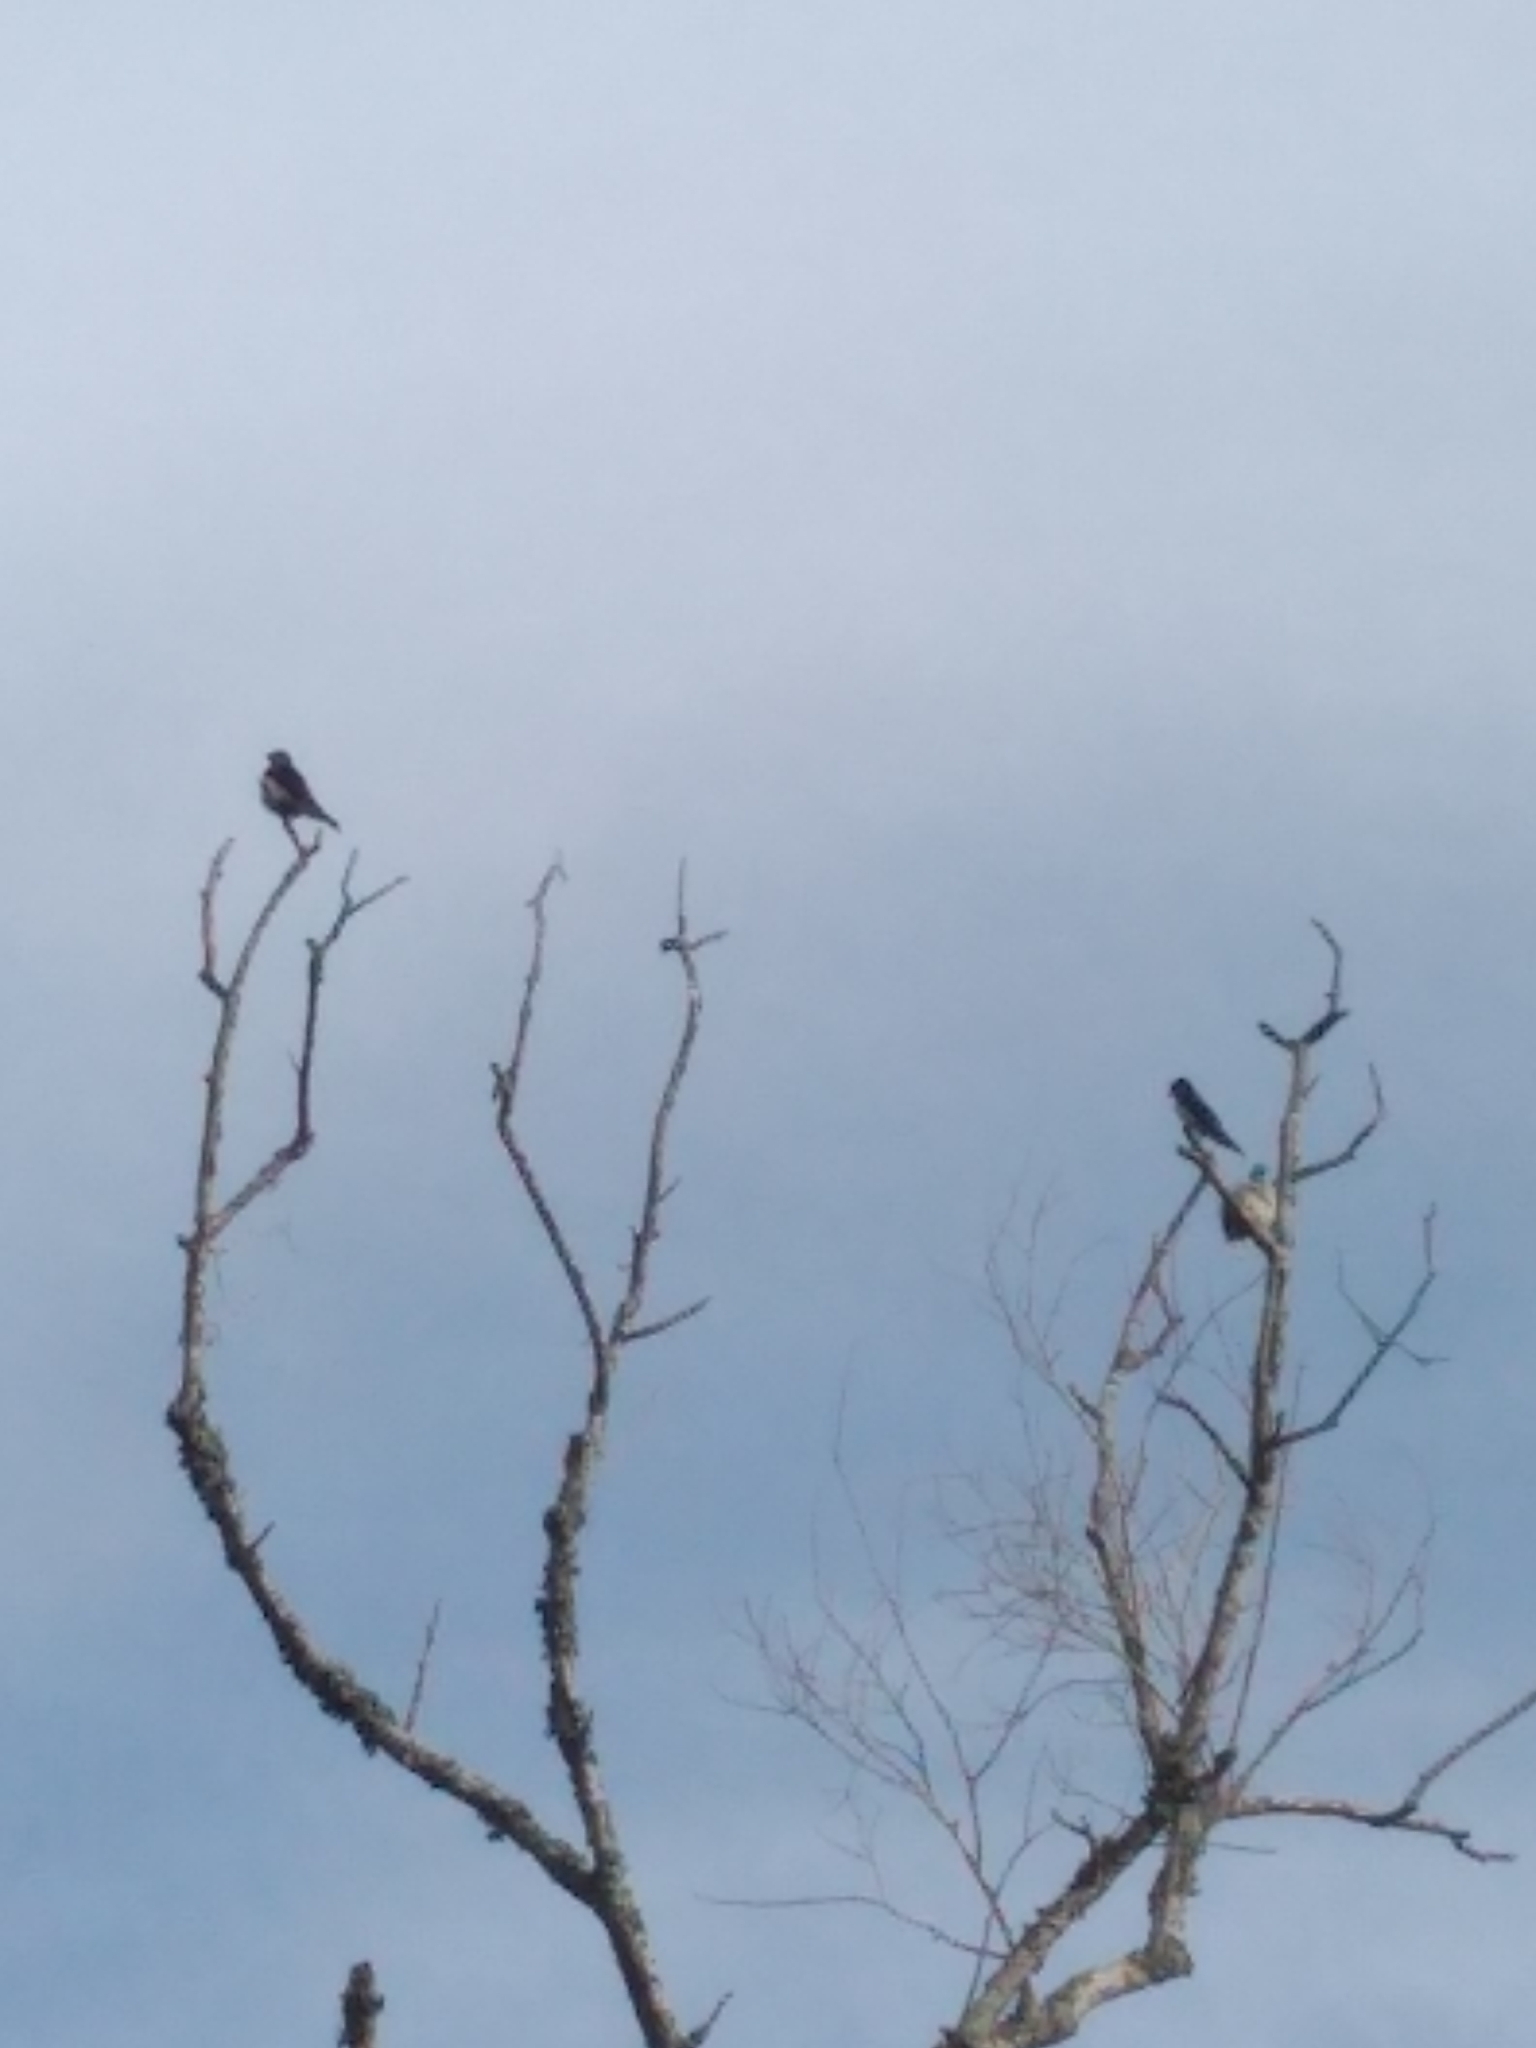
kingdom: Animalia
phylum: Chordata
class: Aves
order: Passeriformes
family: Hirundinidae
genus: Progne
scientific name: Progne tapera
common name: Brown-chested martin
